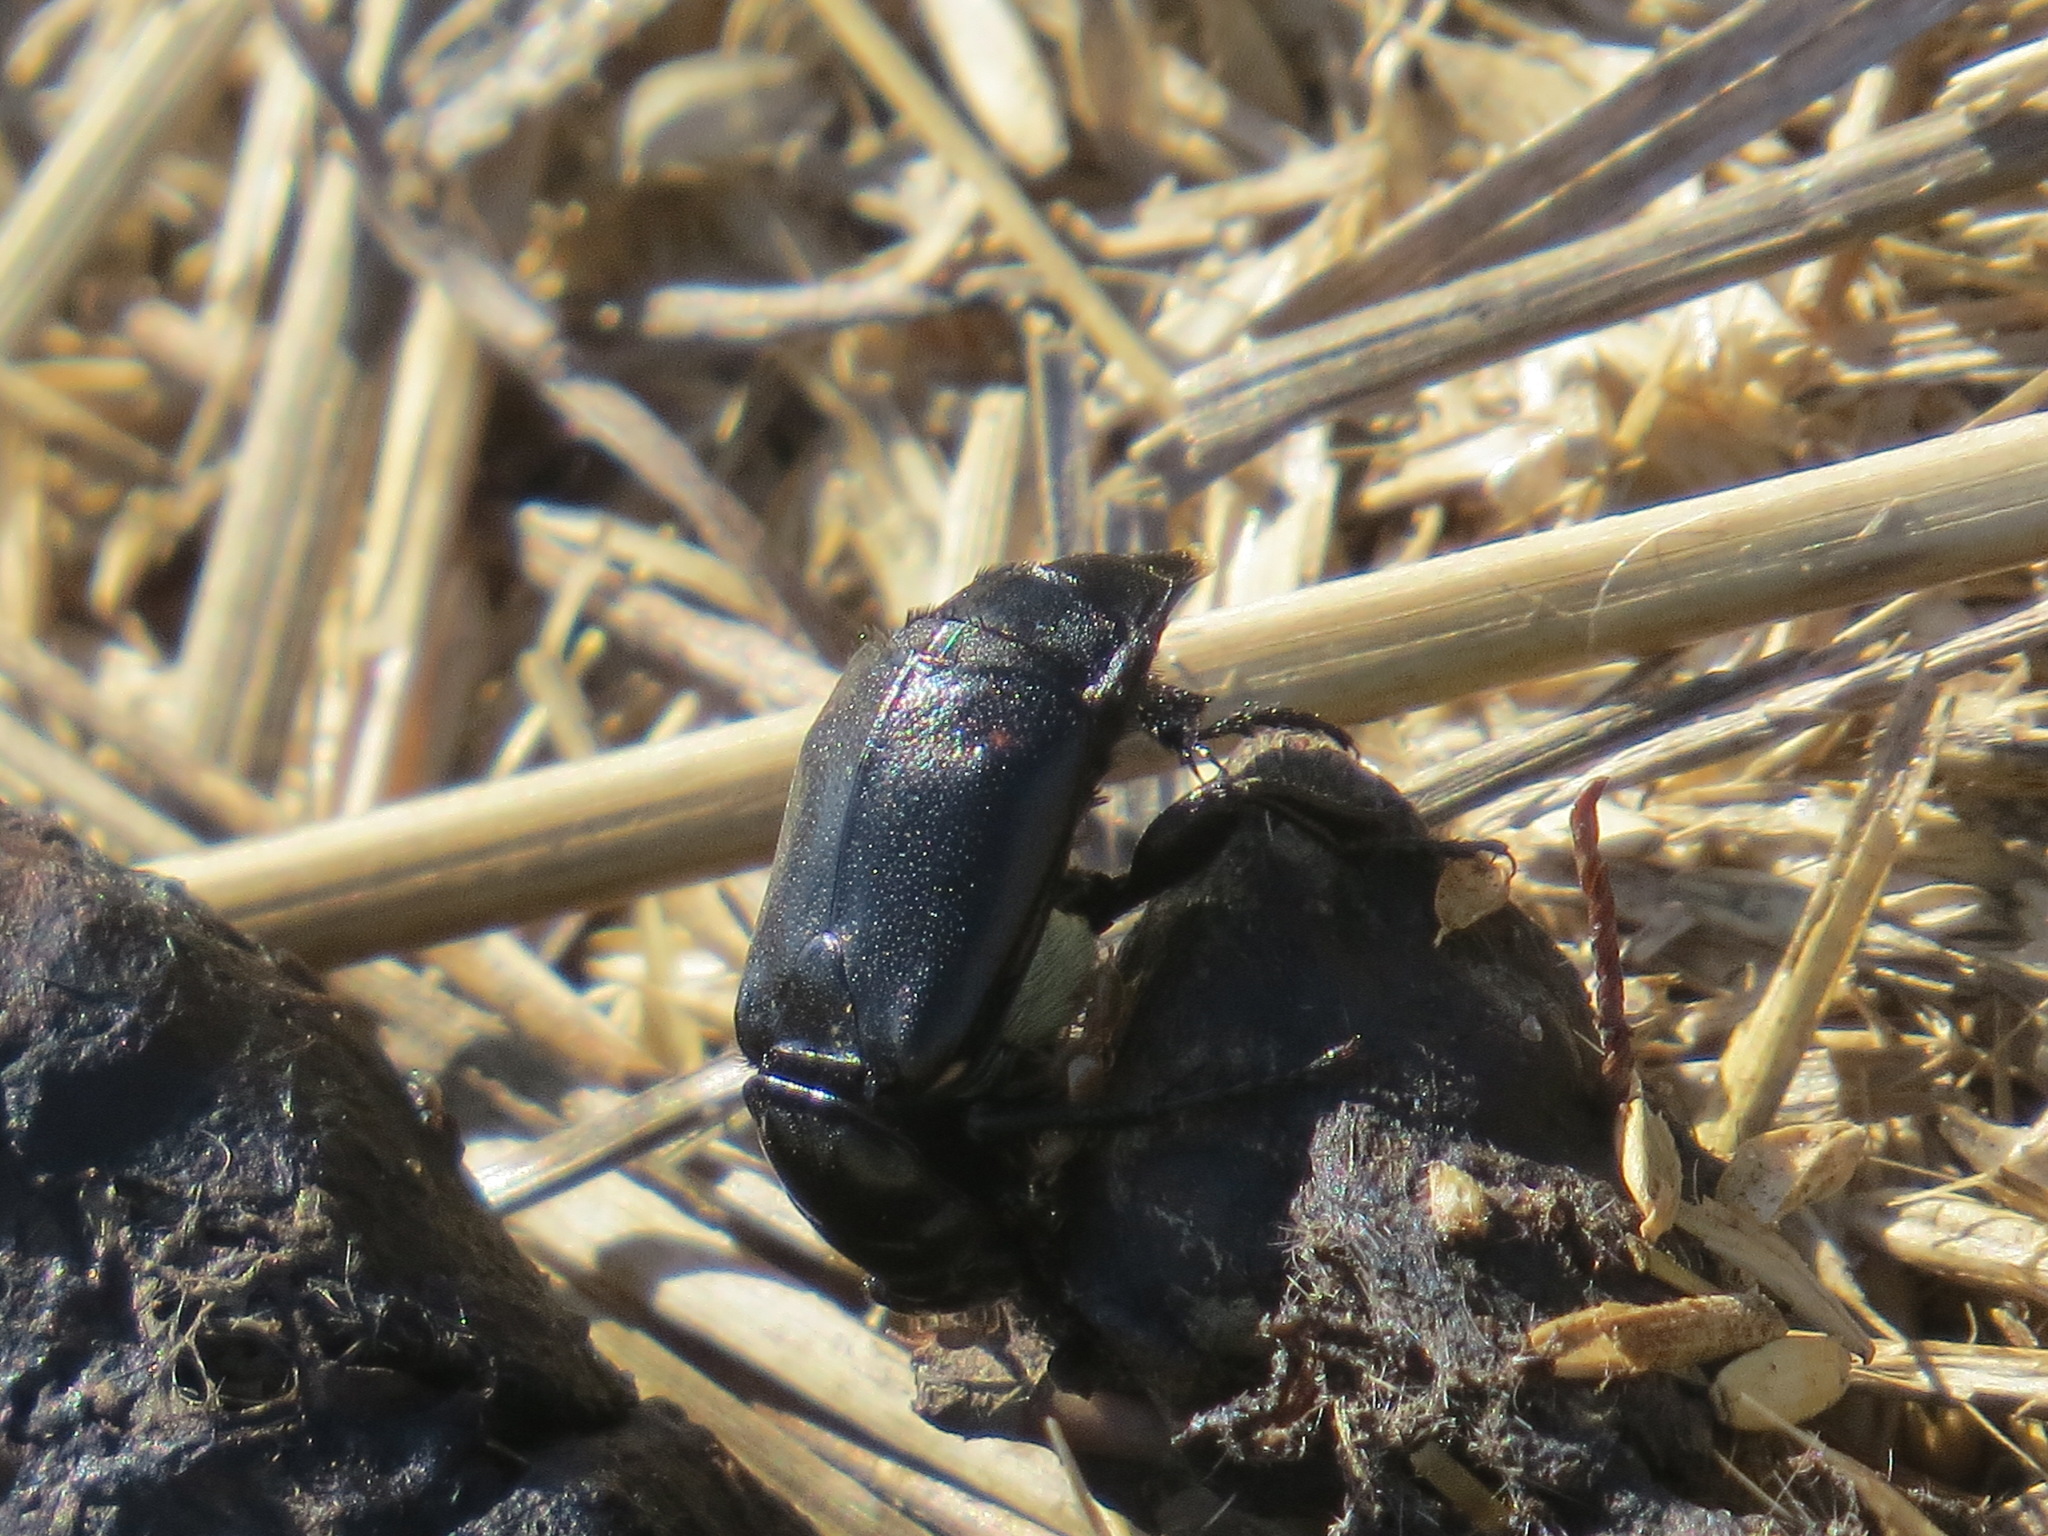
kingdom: Animalia
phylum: Arthropoda
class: Insecta
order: Coleoptera
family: Staphylinidae
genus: Nicrophorus
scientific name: Nicrophorus guttula
